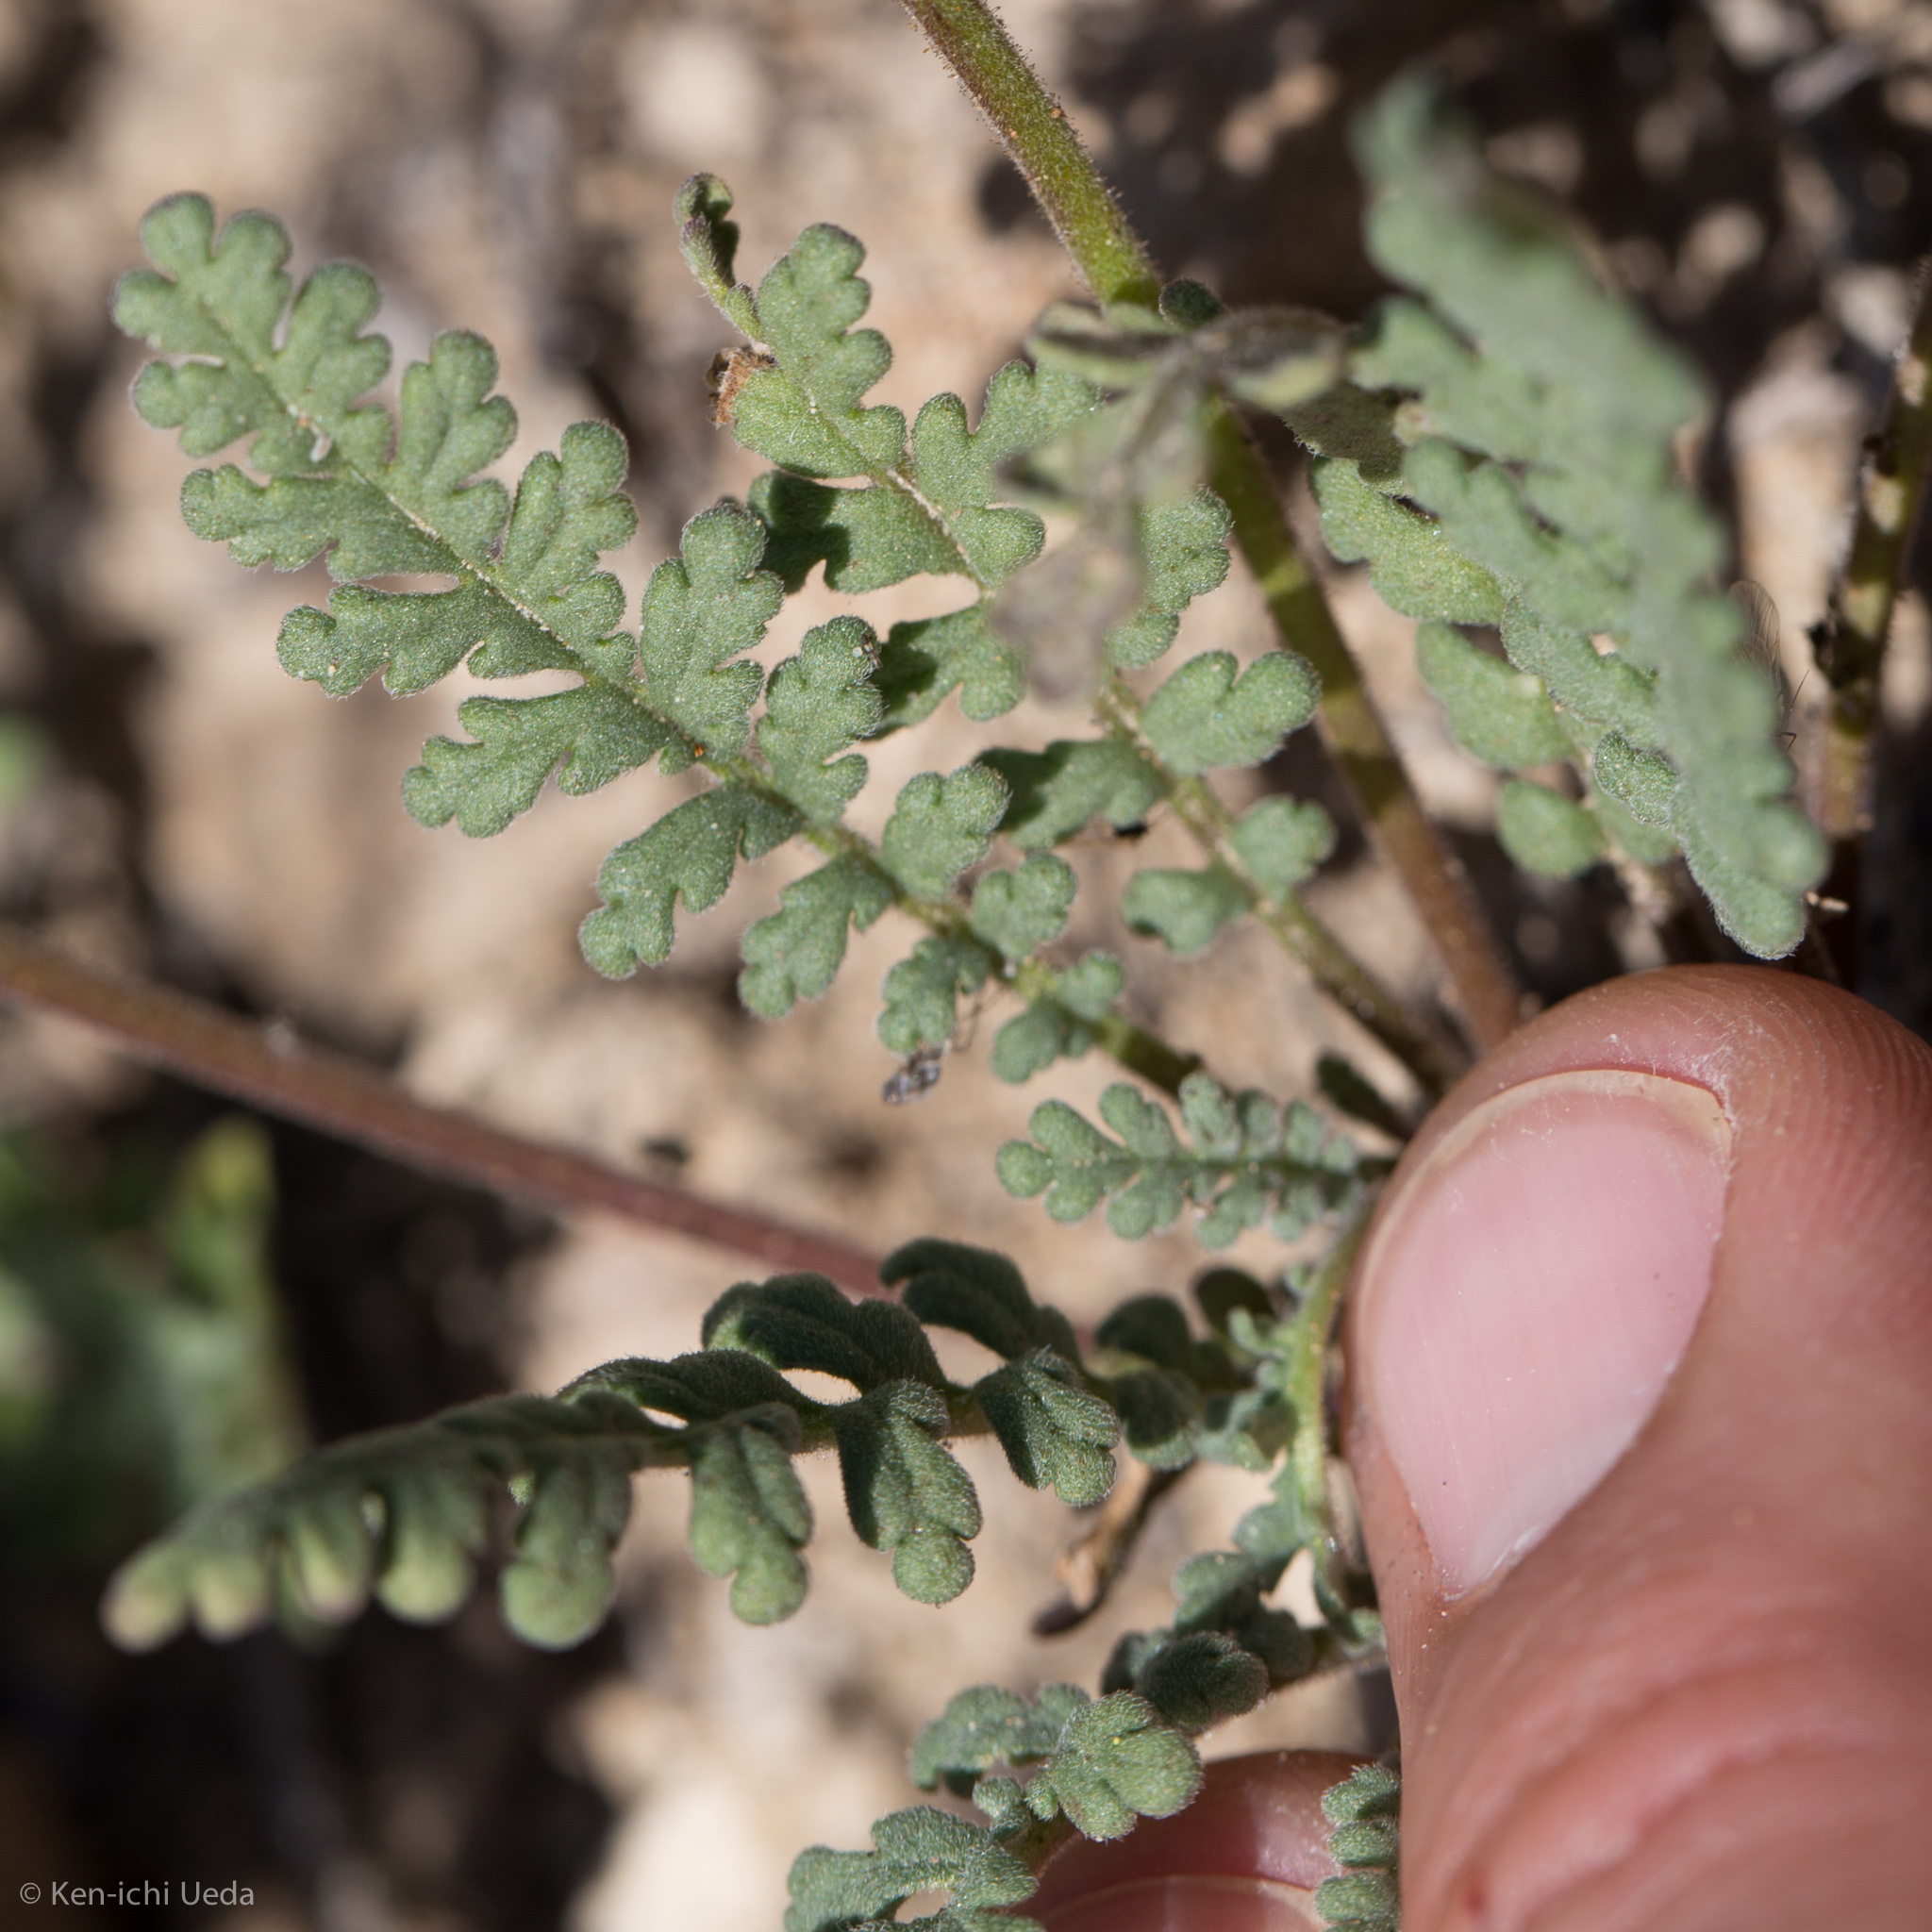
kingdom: Plantae
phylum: Tracheophyta
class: Magnoliopsida
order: Boraginales
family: Hydrophyllaceae
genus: Phacelia
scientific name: Phacelia fremontii
